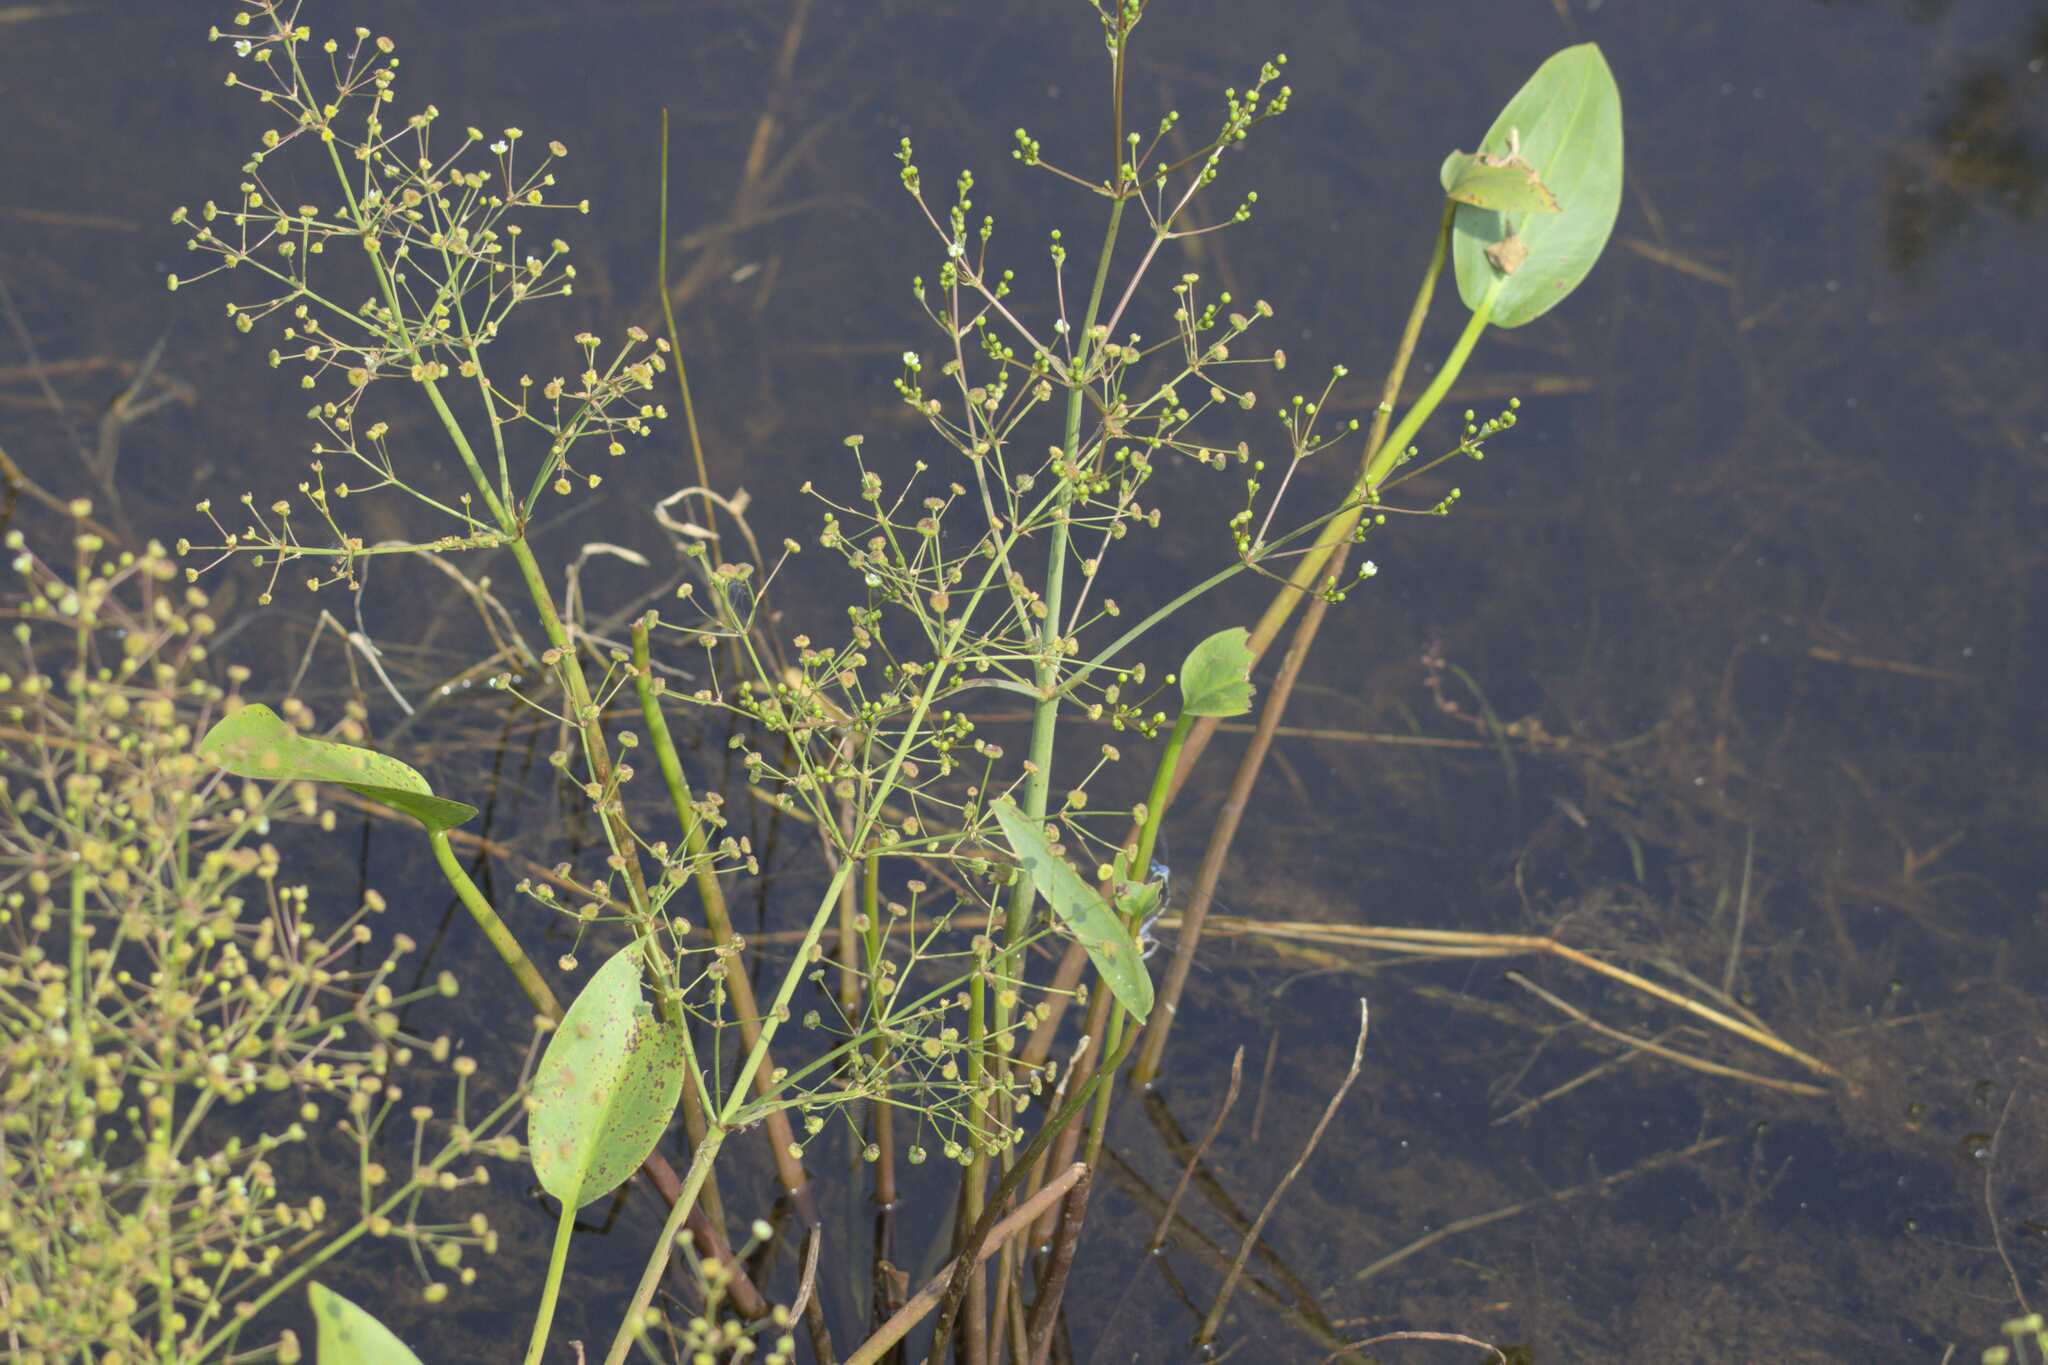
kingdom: Plantae
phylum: Tracheophyta
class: Liliopsida
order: Alismatales
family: Alismataceae
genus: Alisma
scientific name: Alisma triviale
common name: Northern water-plantain
